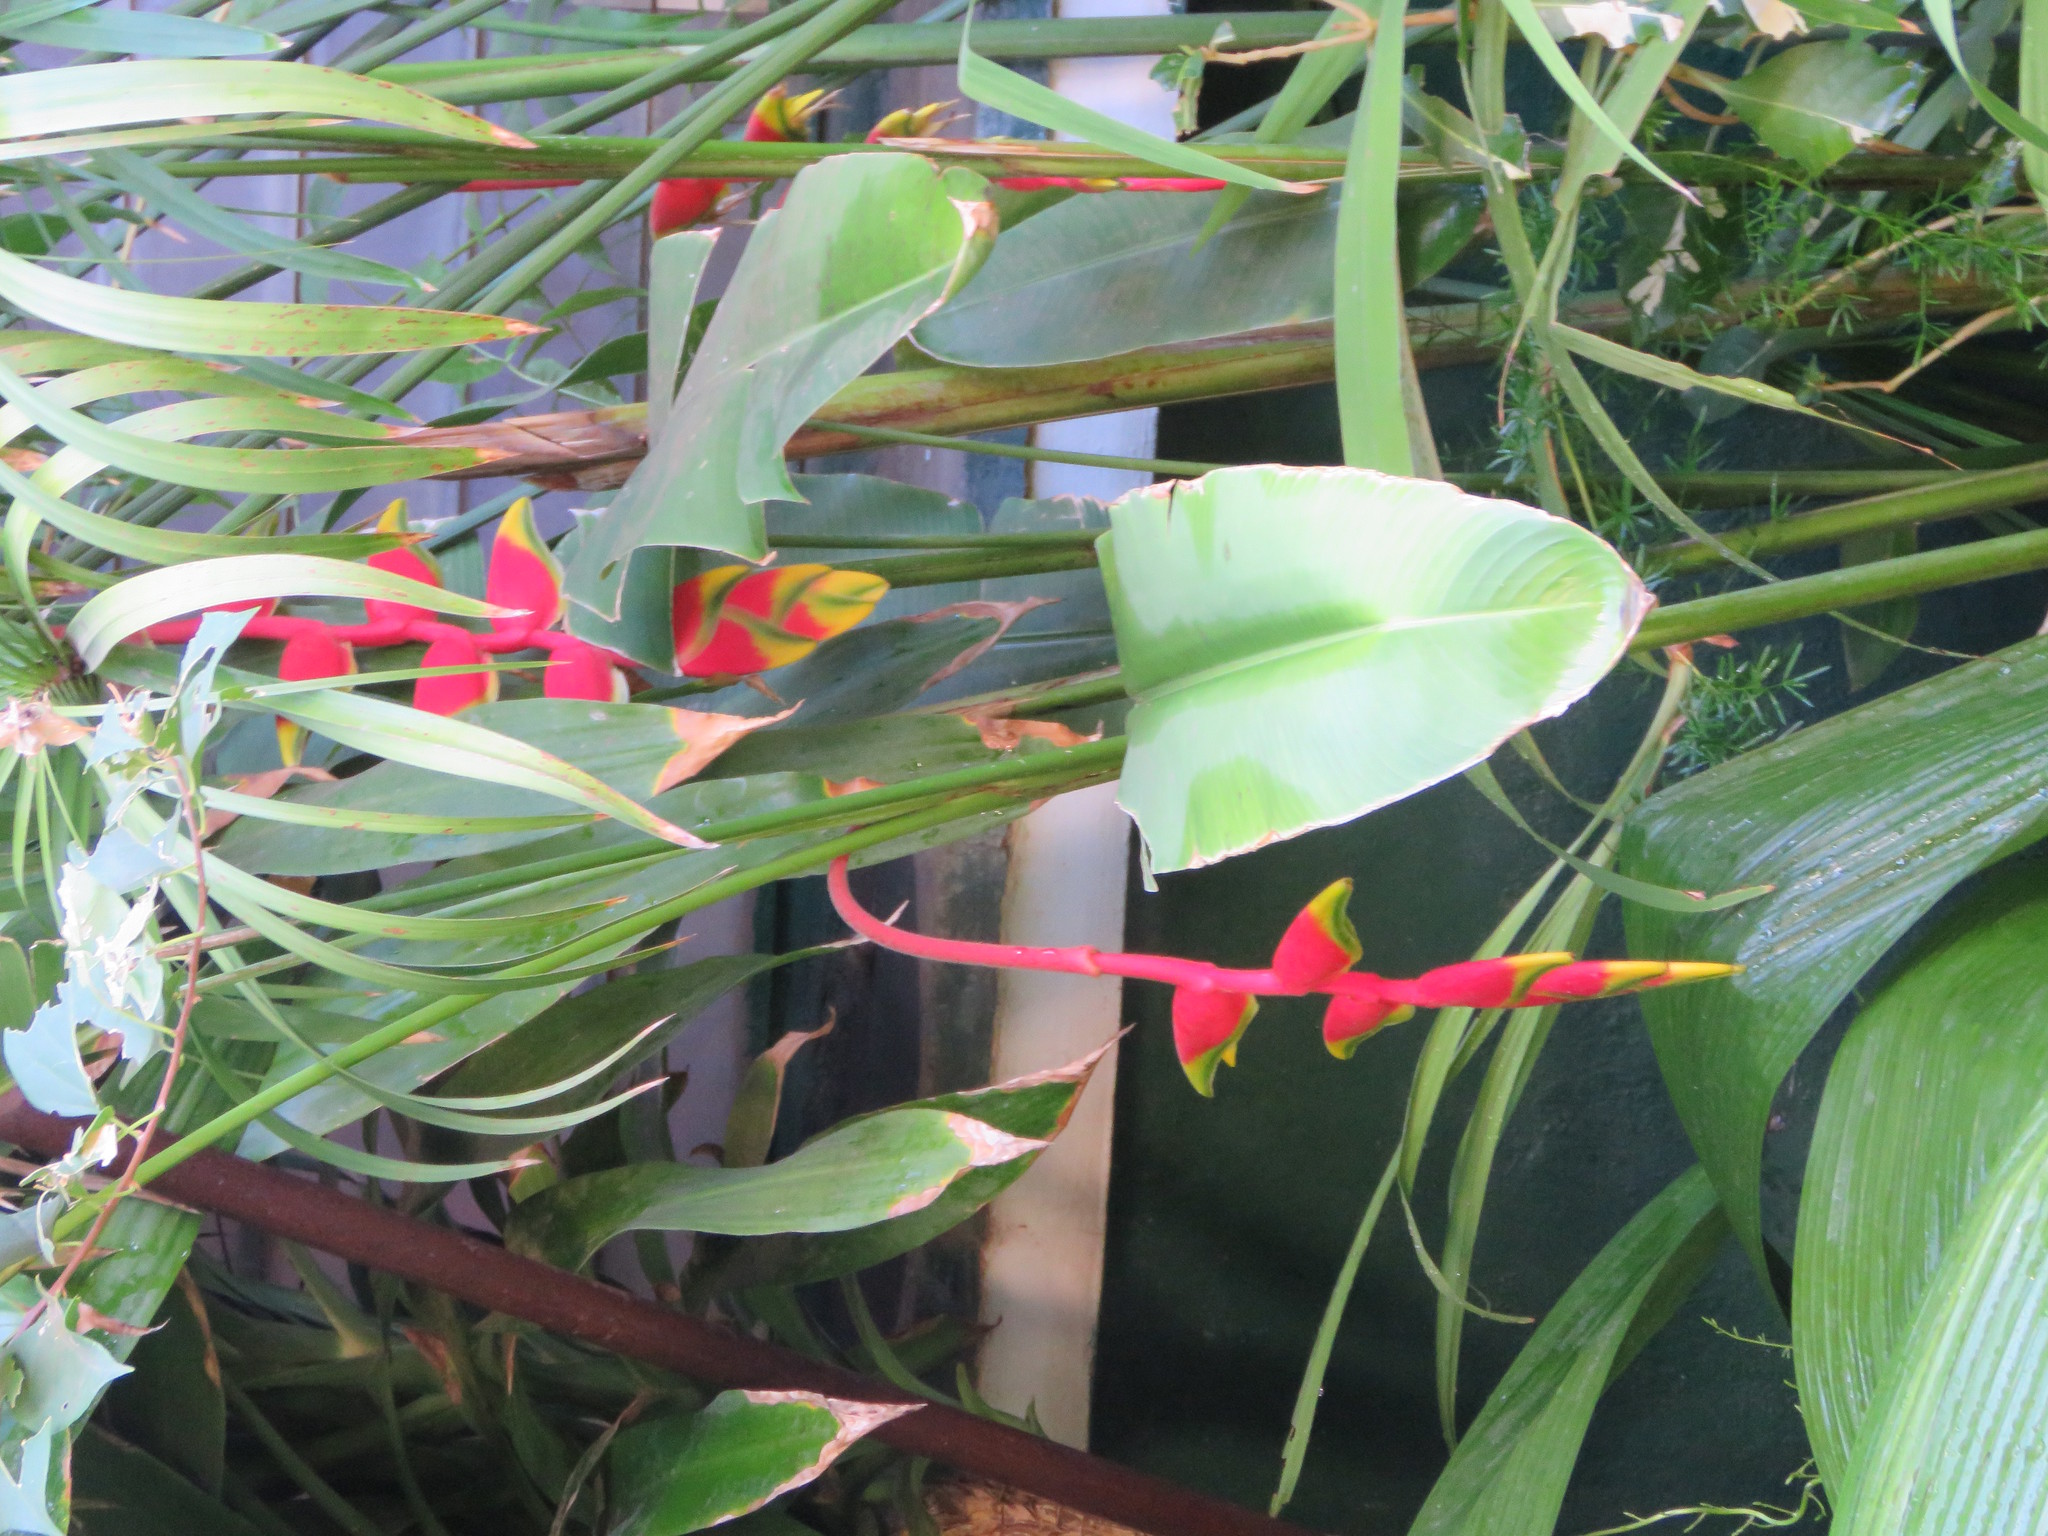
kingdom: Plantae
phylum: Tracheophyta
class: Liliopsida
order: Zingiberales
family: Heliconiaceae
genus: Heliconia
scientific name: Heliconia rostrata
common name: False bird of paradise
